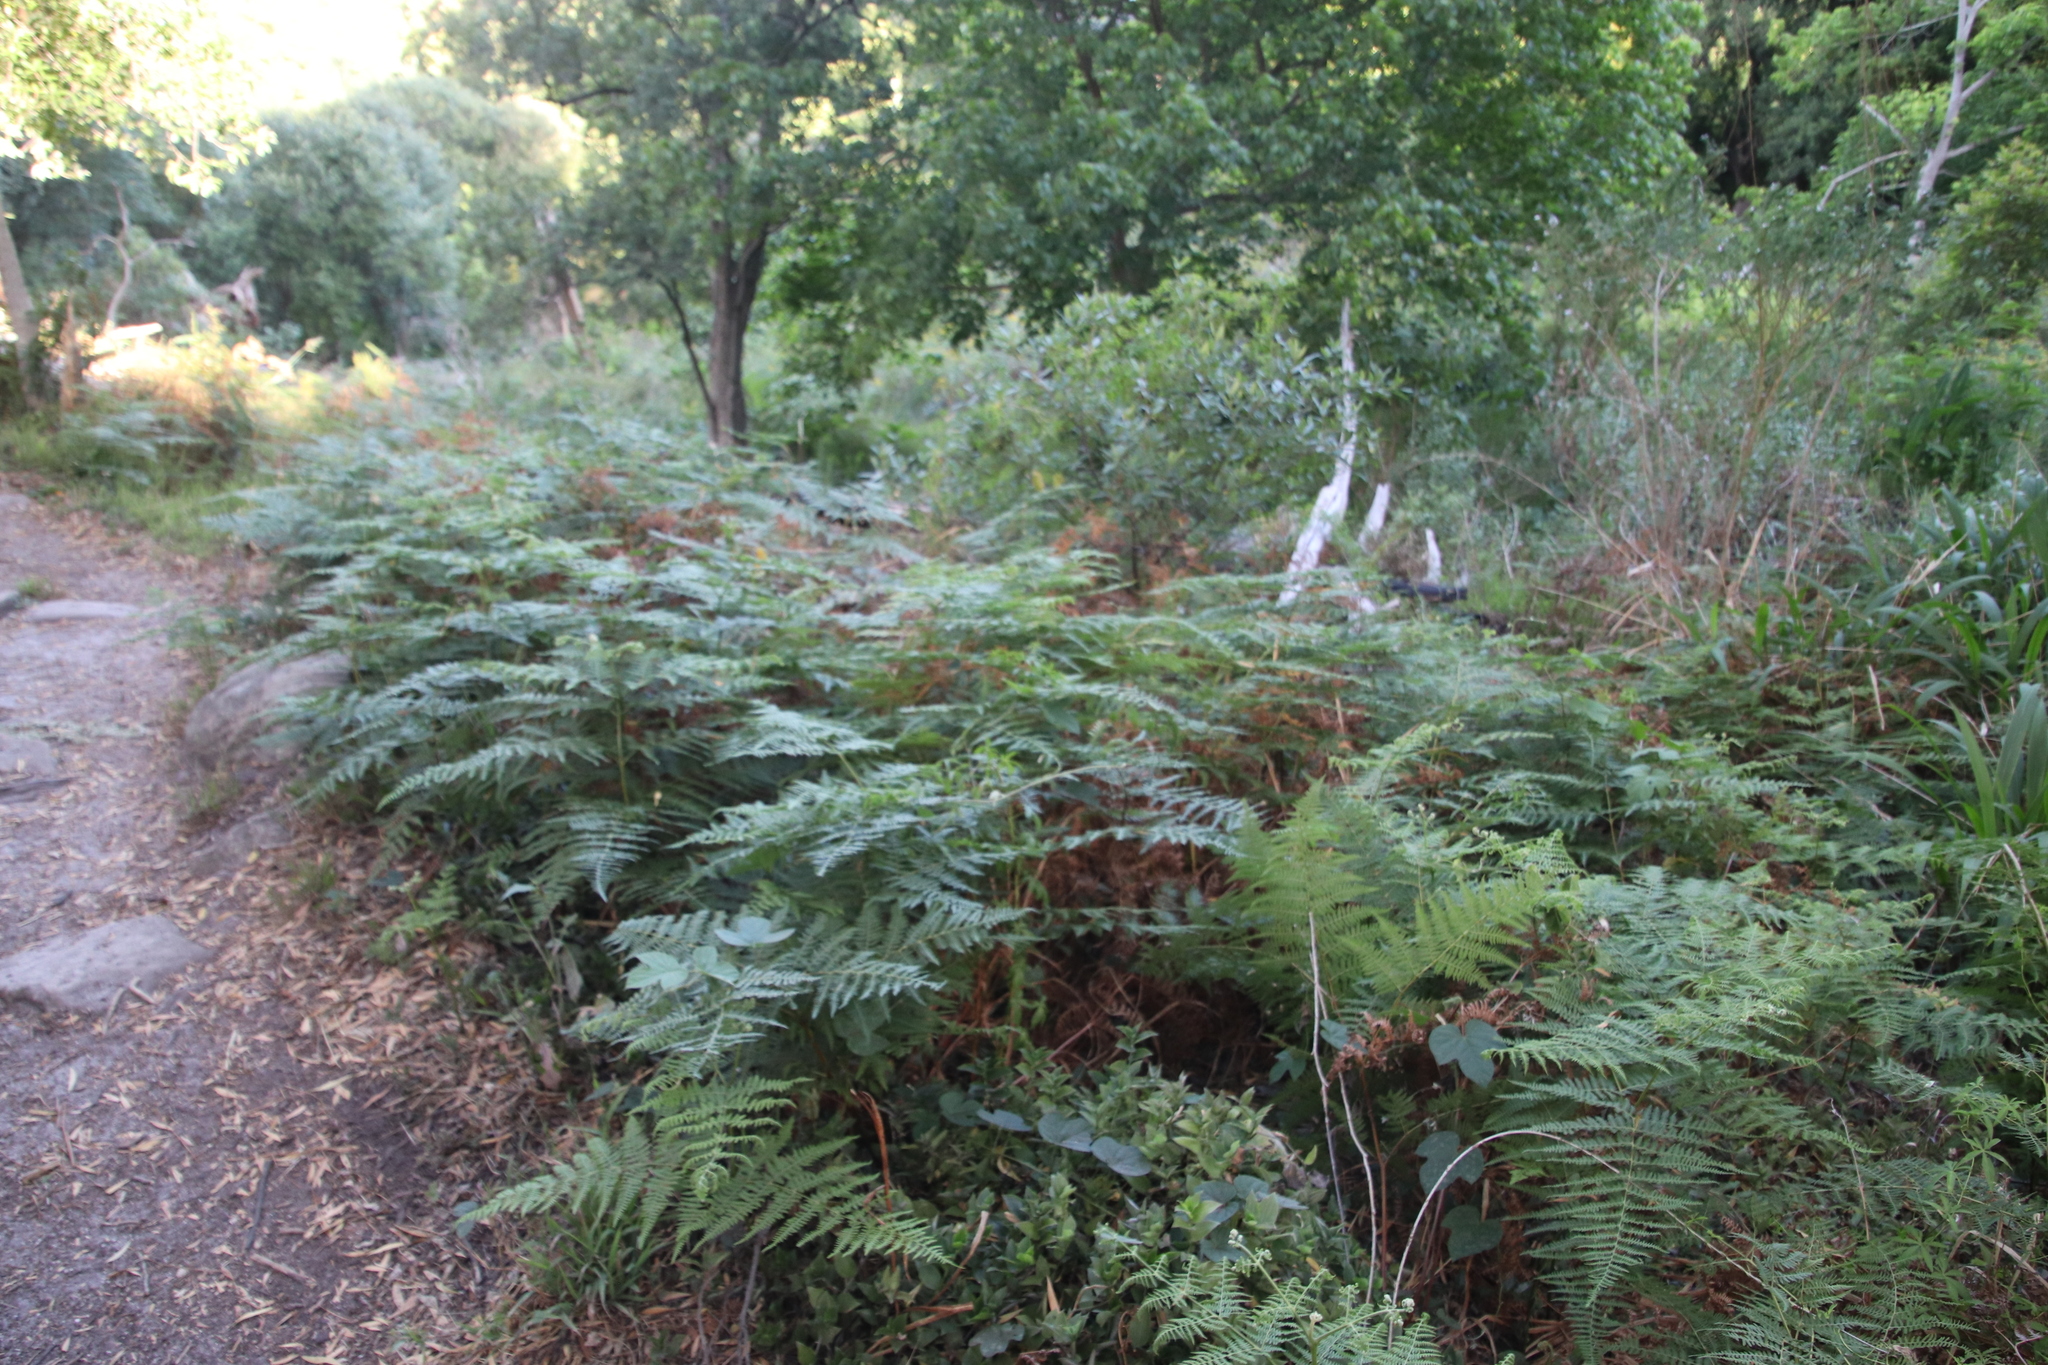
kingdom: Plantae
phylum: Tracheophyta
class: Polypodiopsida
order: Polypodiales
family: Dennstaedtiaceae
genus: Pteridium
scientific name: Pteridium aquilinum
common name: Bracken
